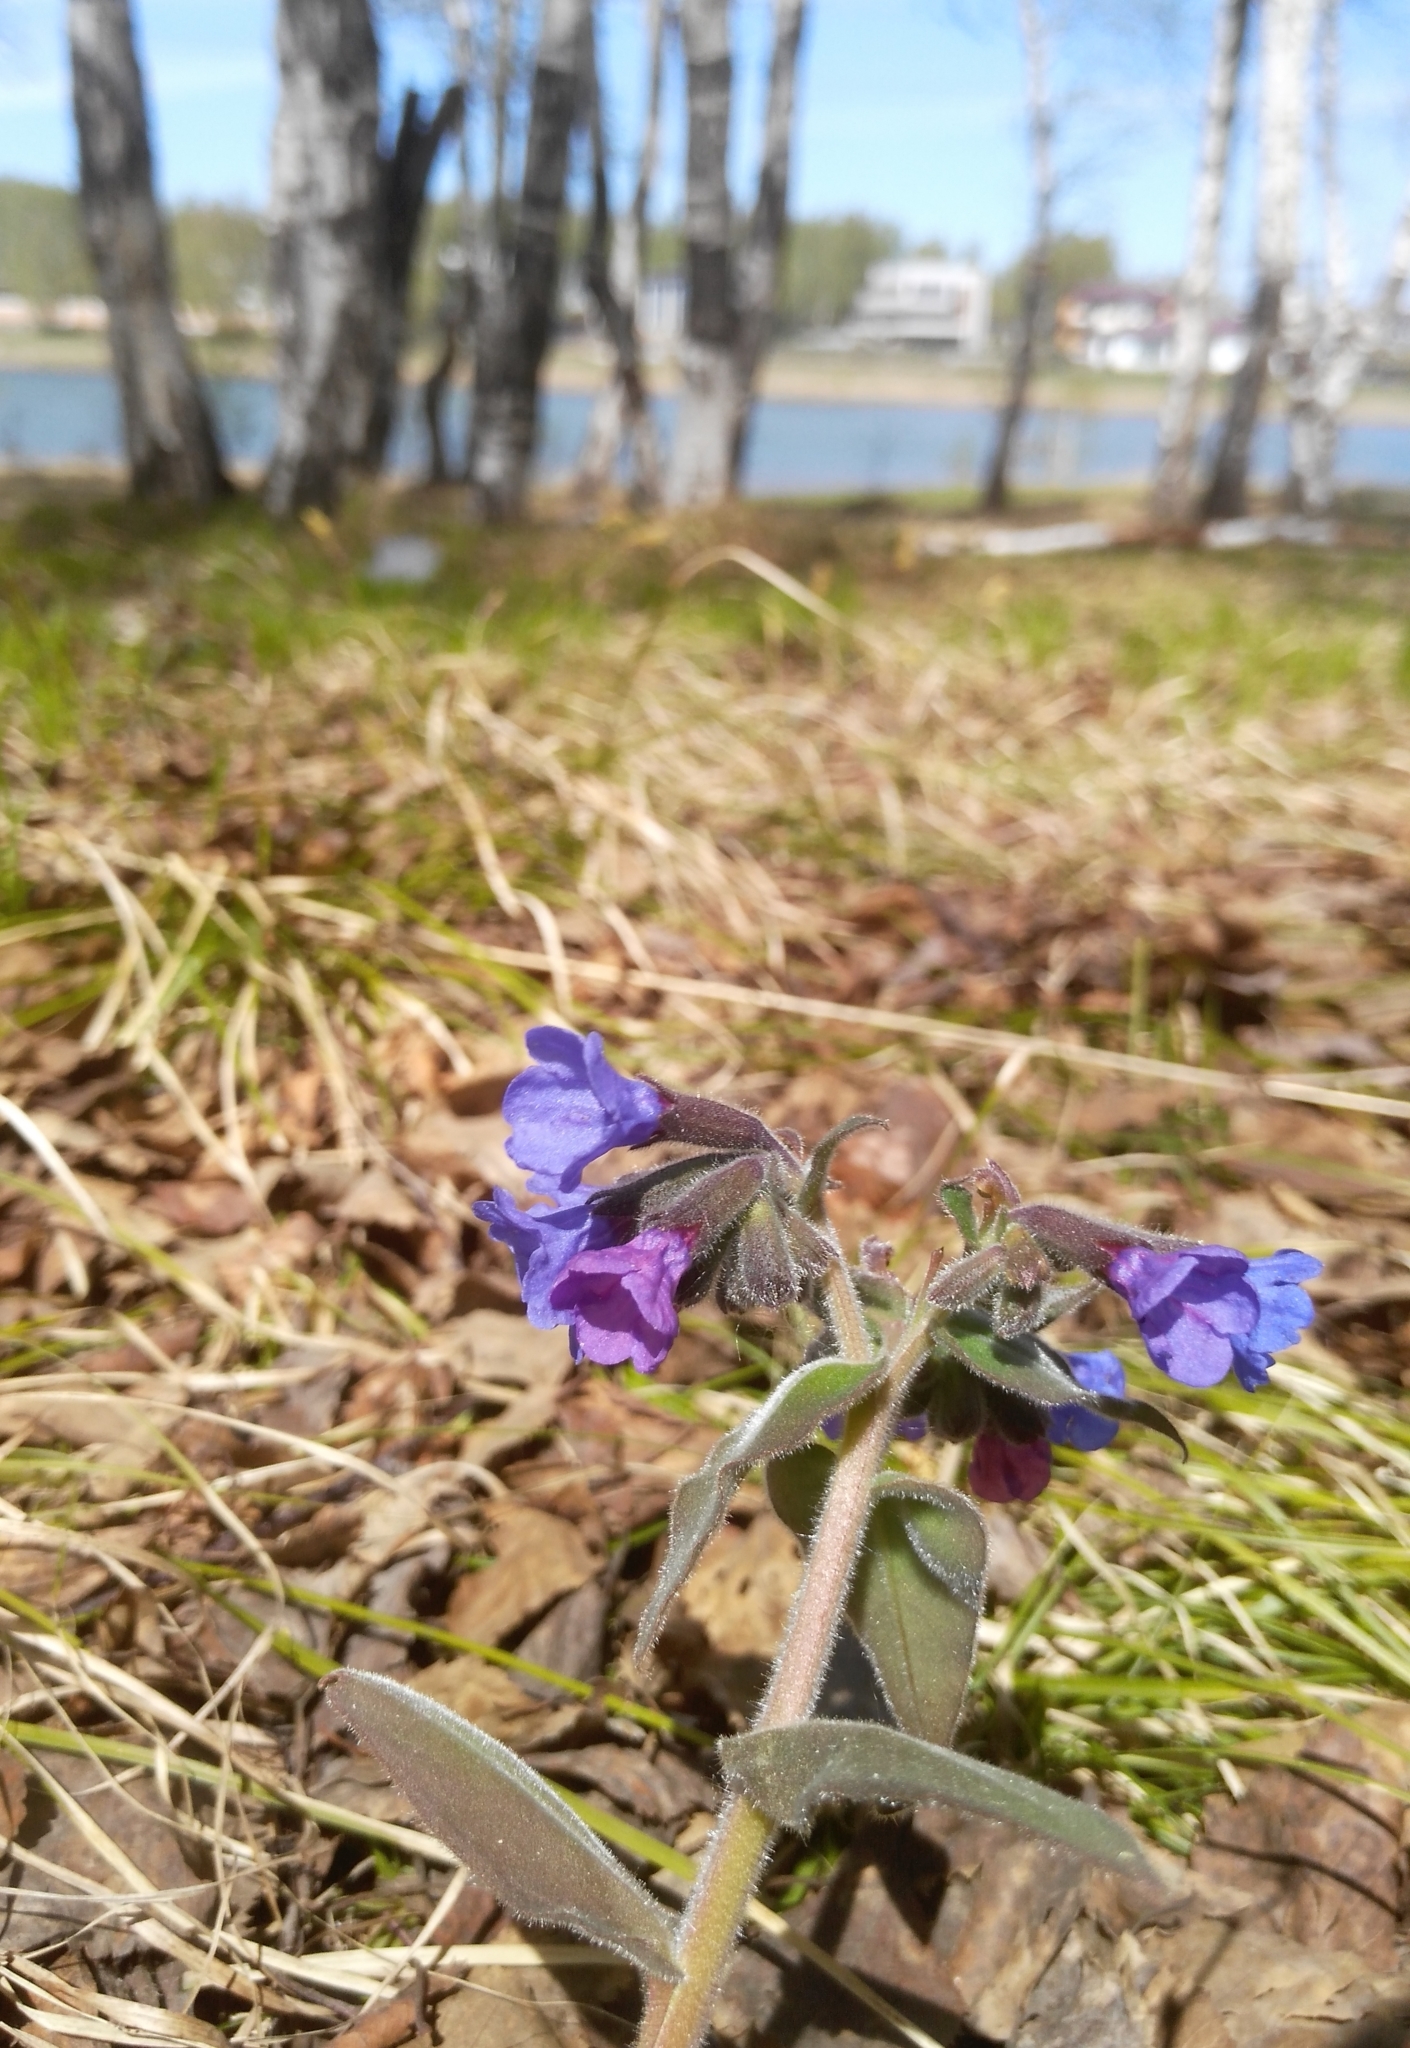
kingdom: Plantae
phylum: Tracheophyta
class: Magnoliopsida
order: Boraginales
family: Boraginaceae
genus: Pulmonaria
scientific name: Pulmonaria mollis
